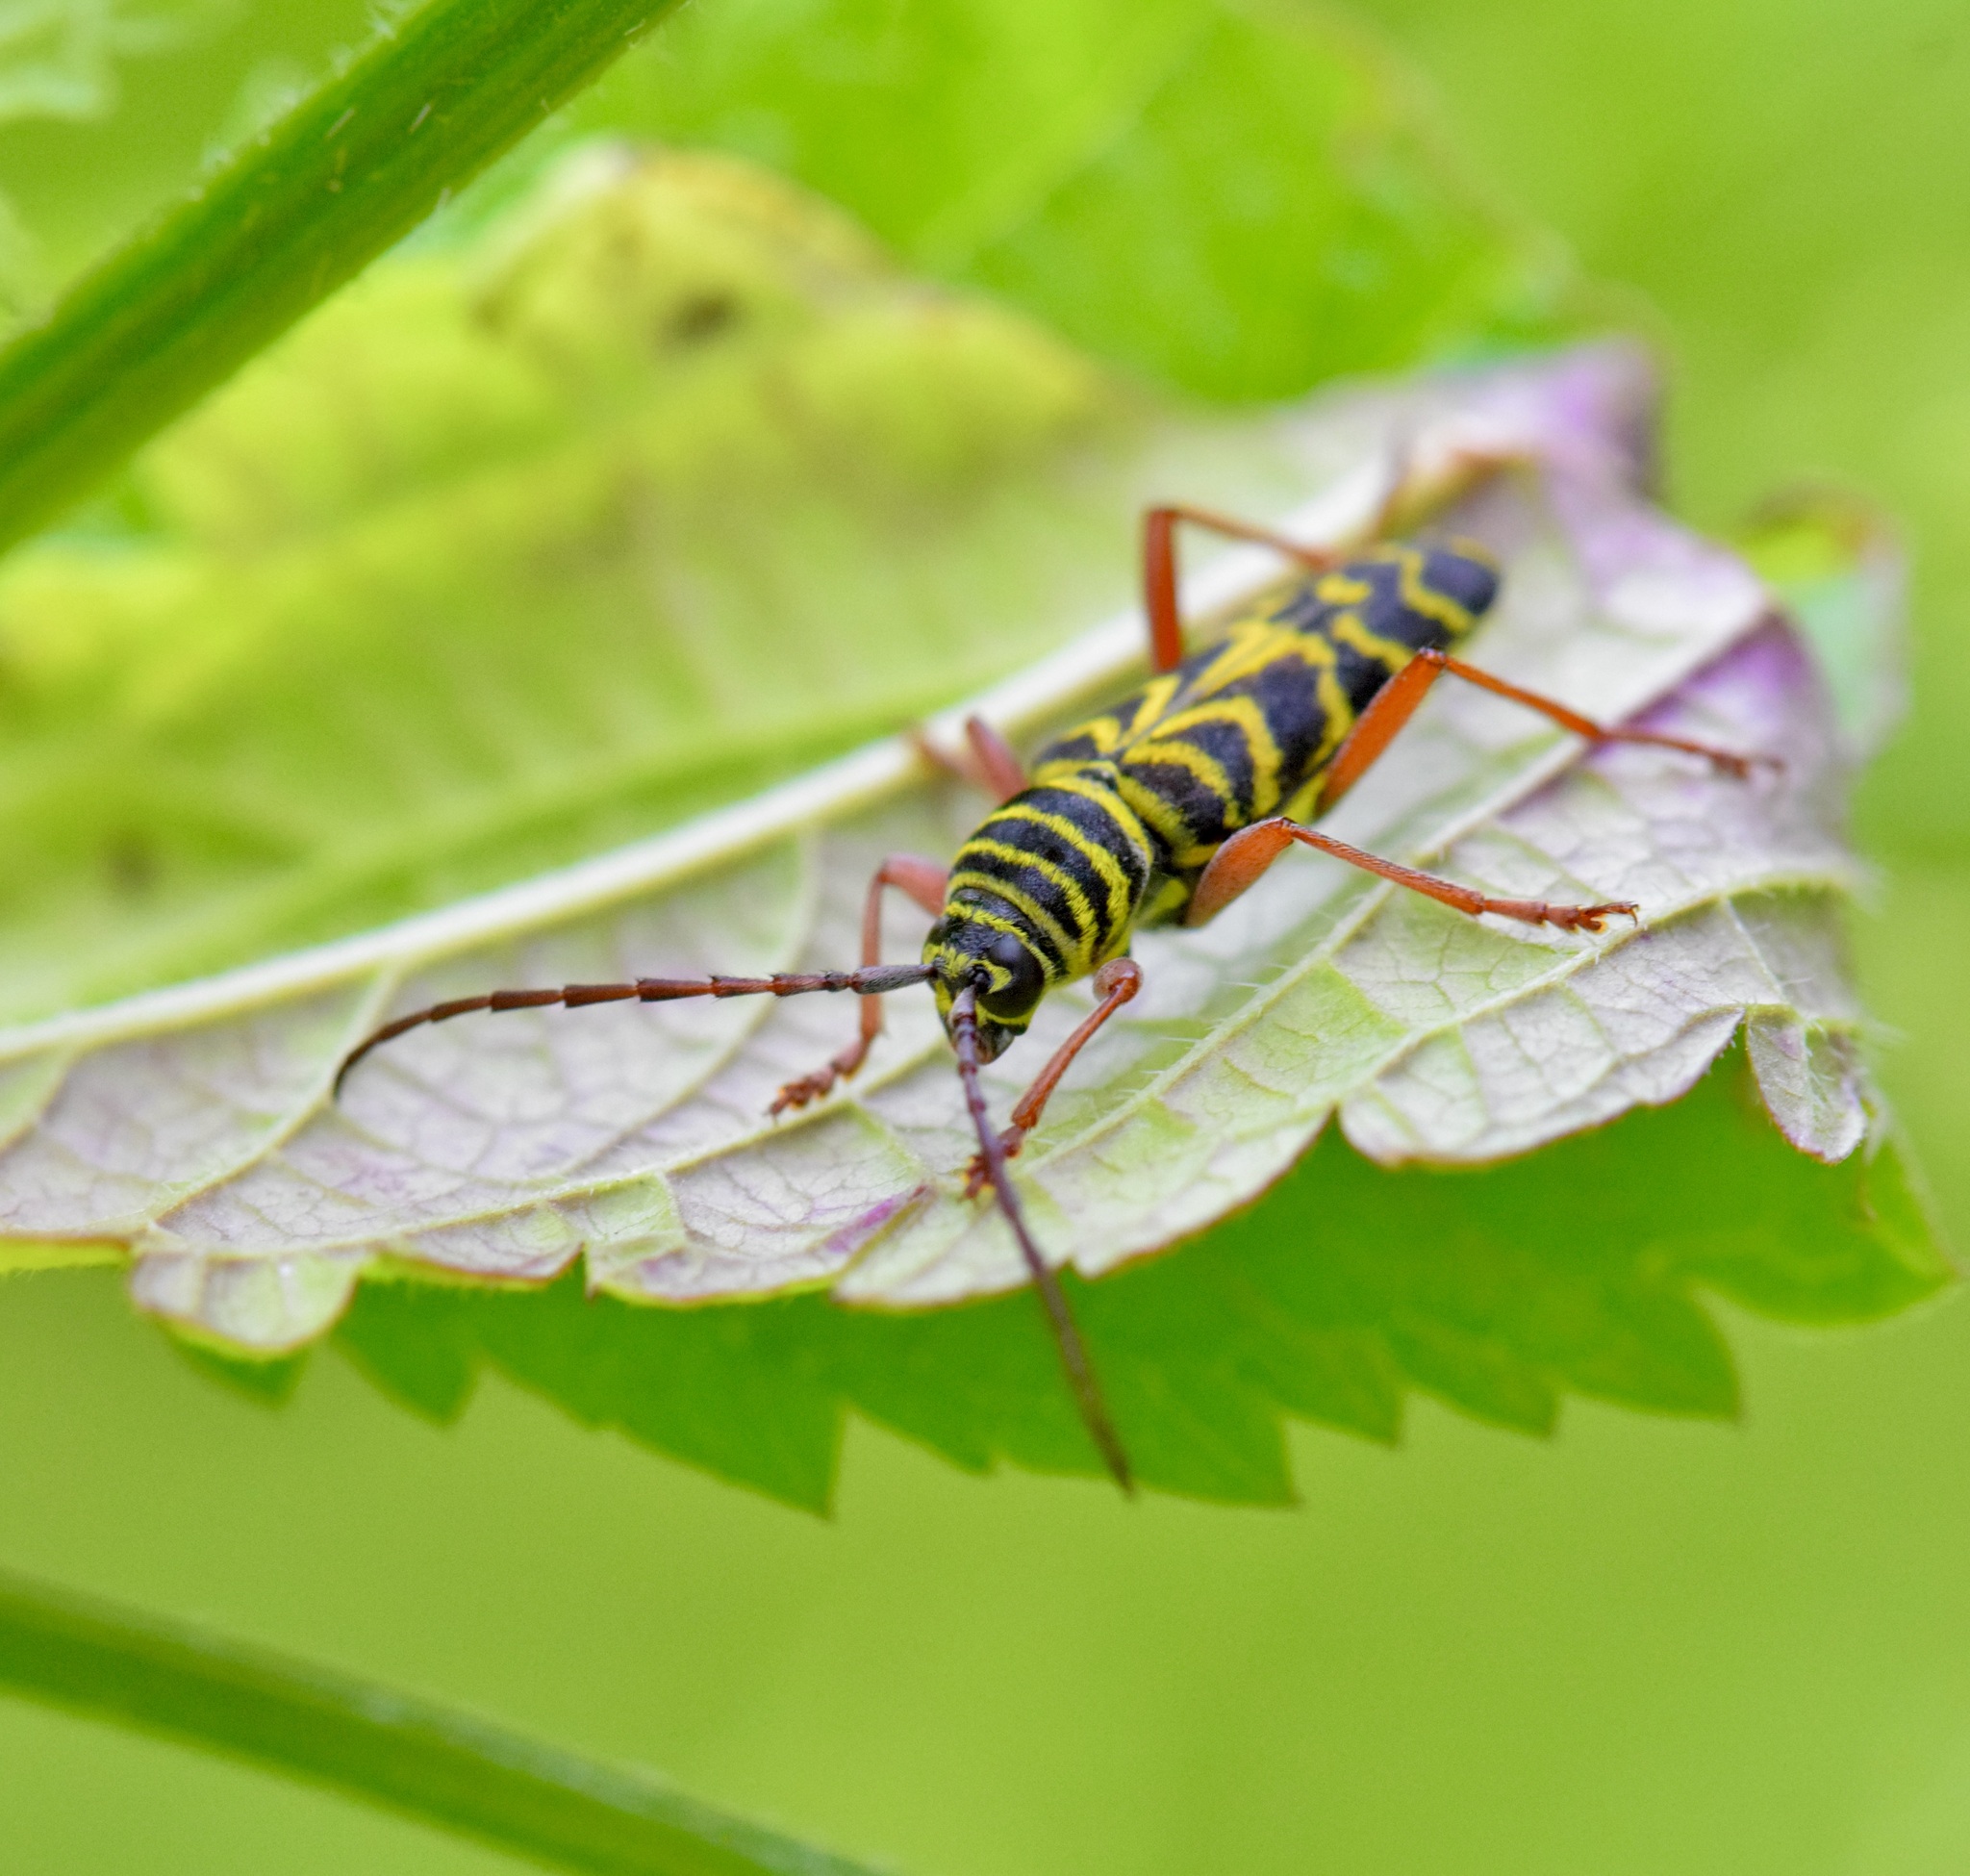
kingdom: Animalia
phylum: Arthropoda
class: Insecta
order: Coleoptera
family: Cerambycidae
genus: Megacyllene
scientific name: Megacyllene robiniae
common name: Locust borer
